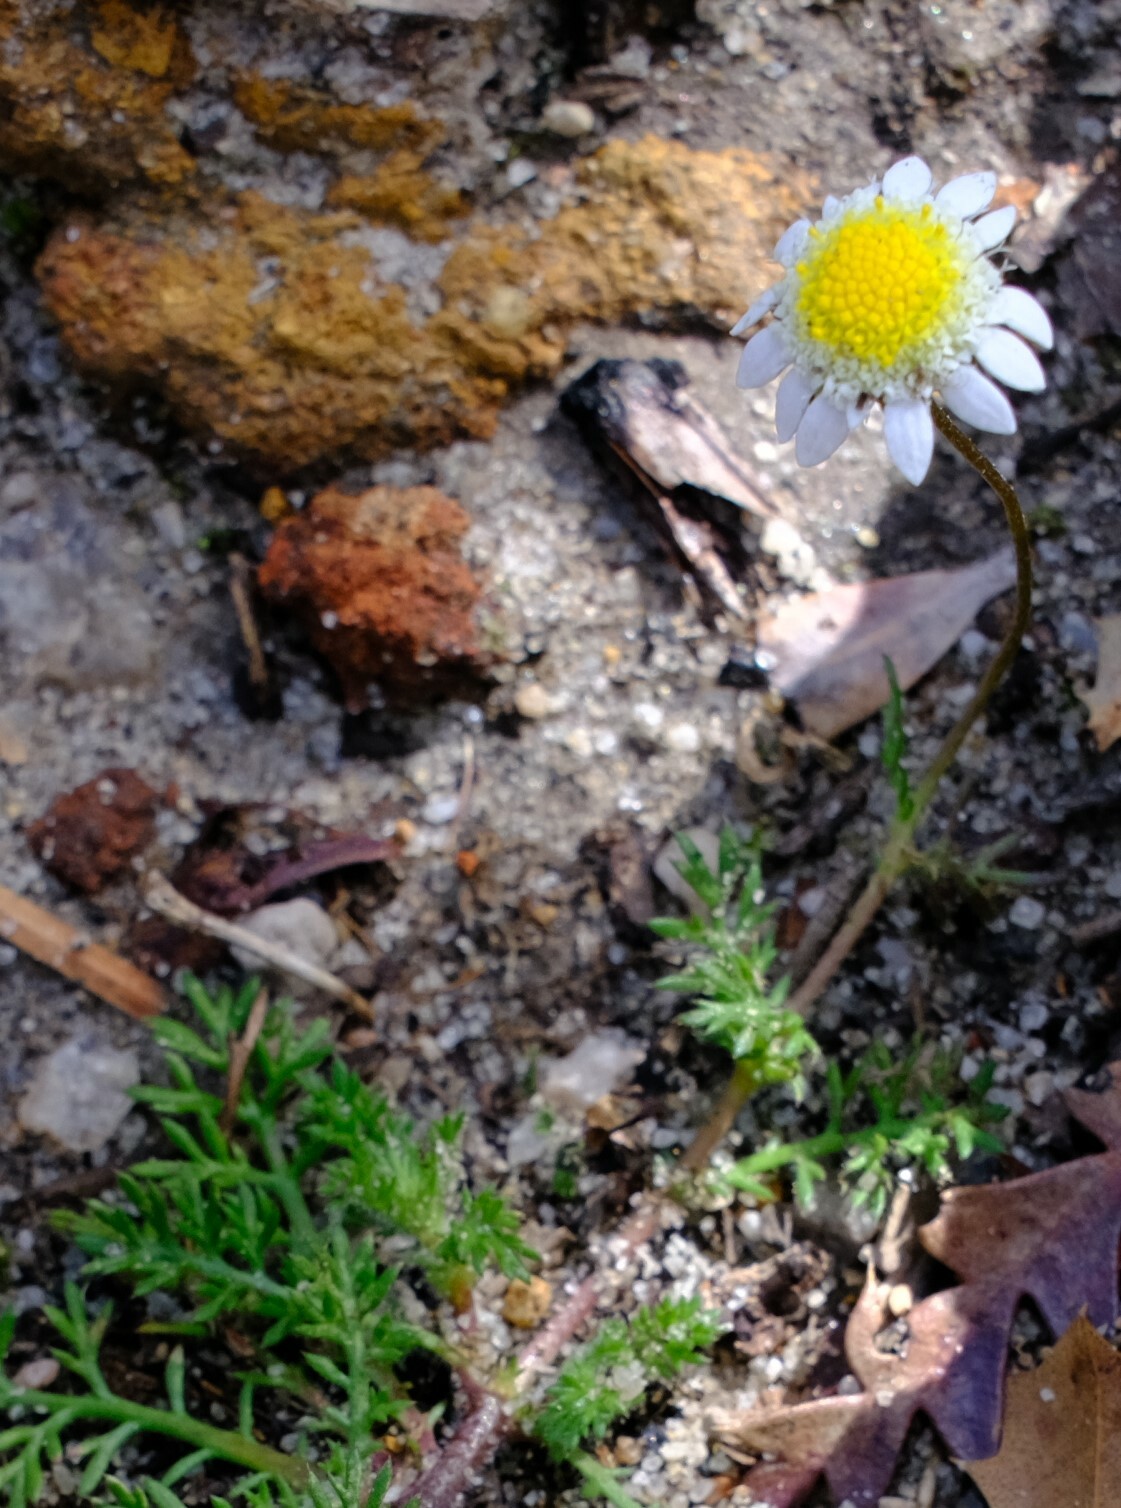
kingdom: Plantae
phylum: Tracheophyta
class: Magnoliopsida
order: Asterales
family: Asteraceae
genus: Cotula
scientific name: Cotula turbinata
